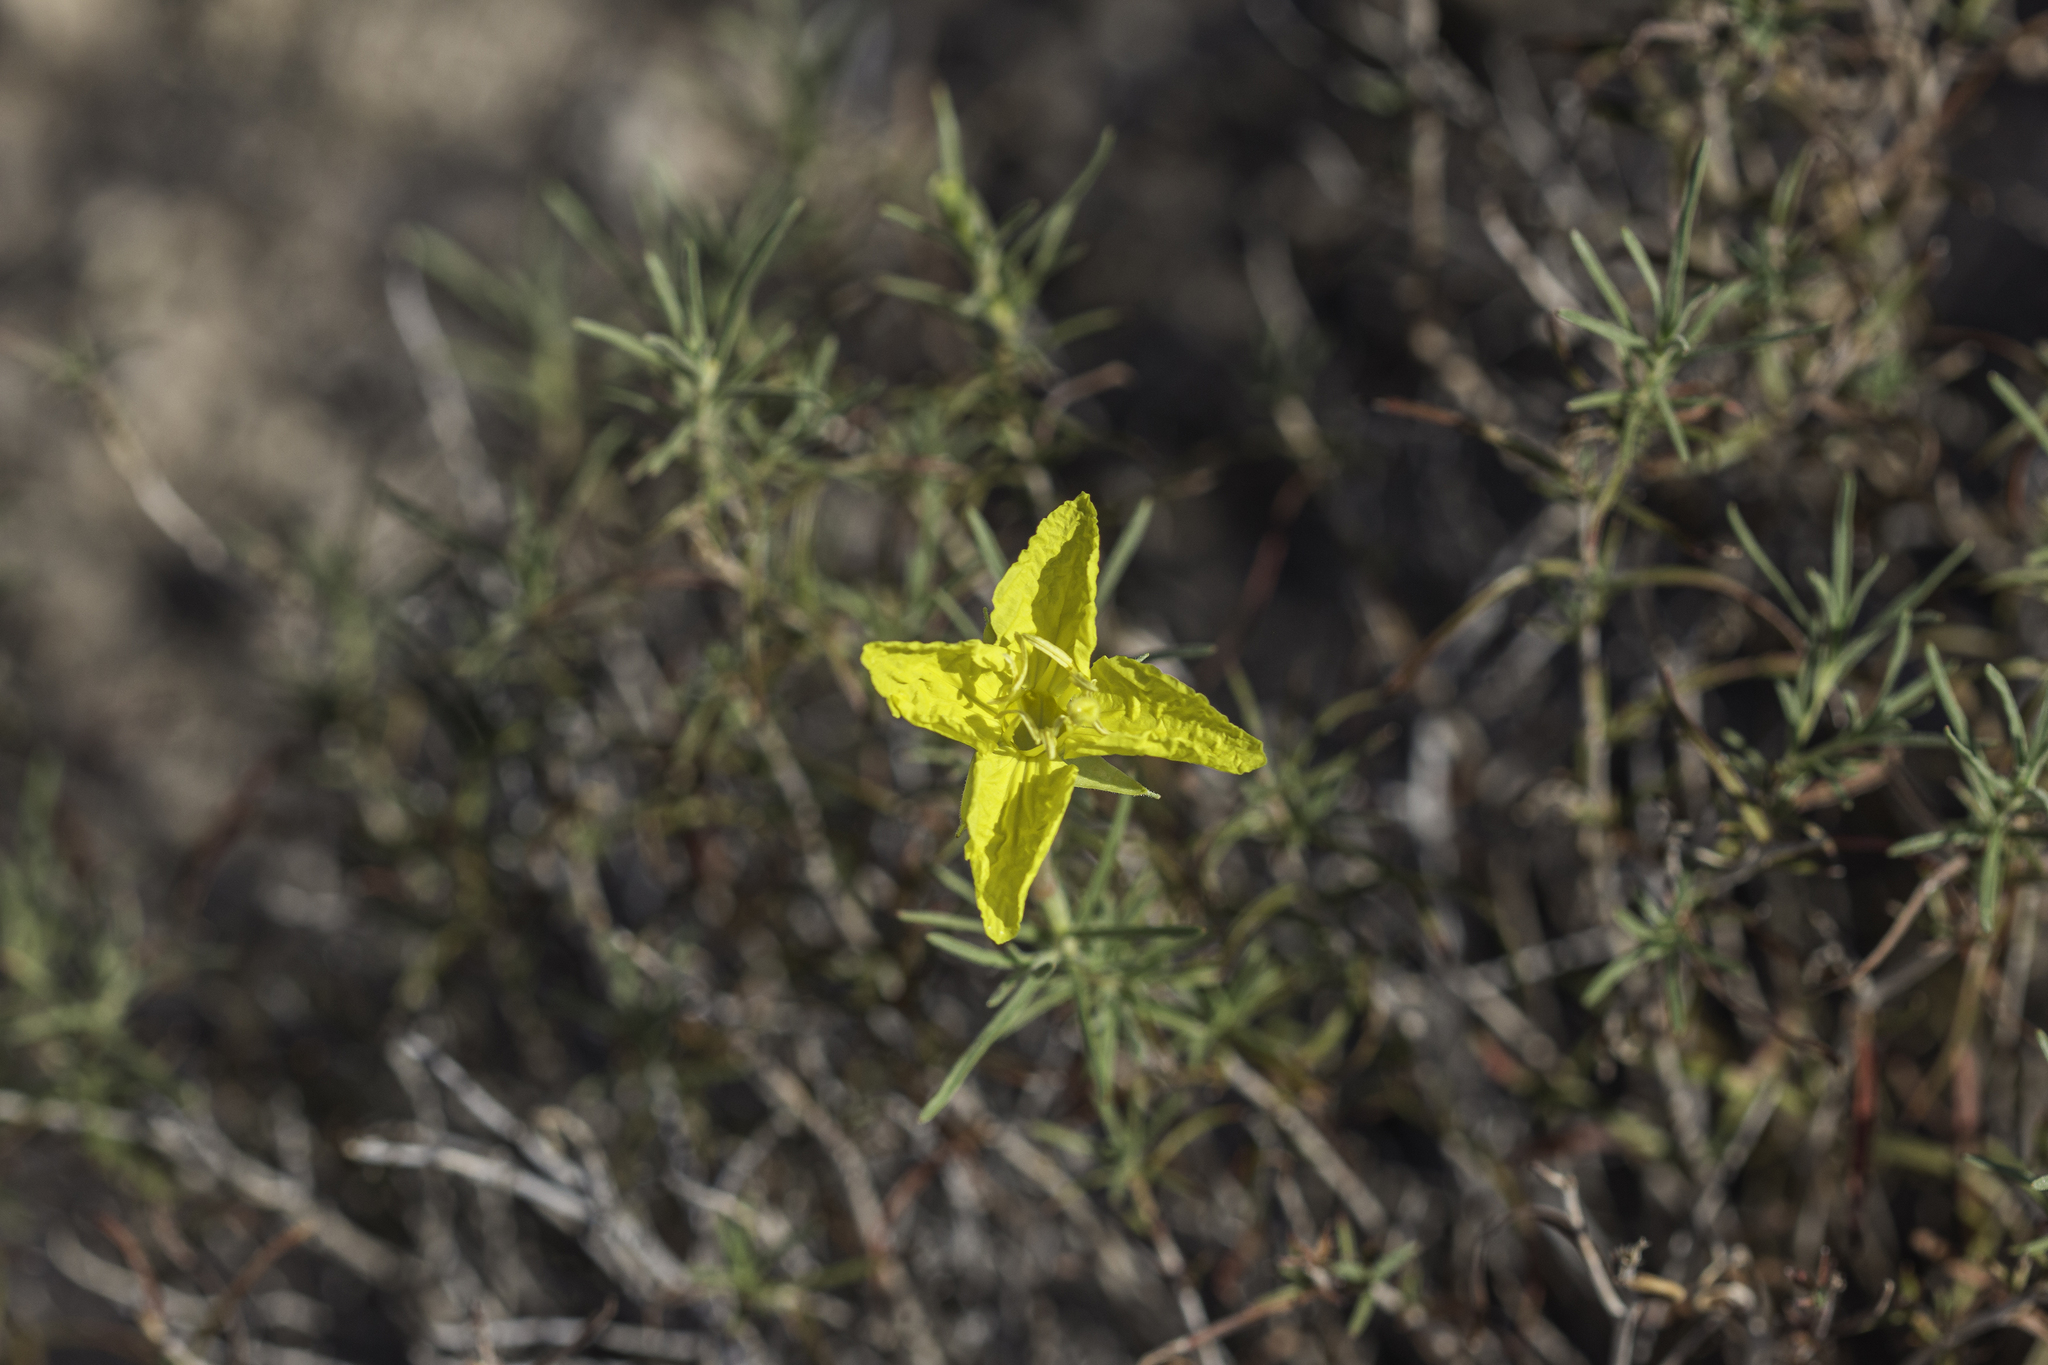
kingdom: Plantae
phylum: Tracheophyta
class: Magnoliopsida
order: Myrtales
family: Onagraceae
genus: Oenothera
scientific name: Oenothera hartwegii
